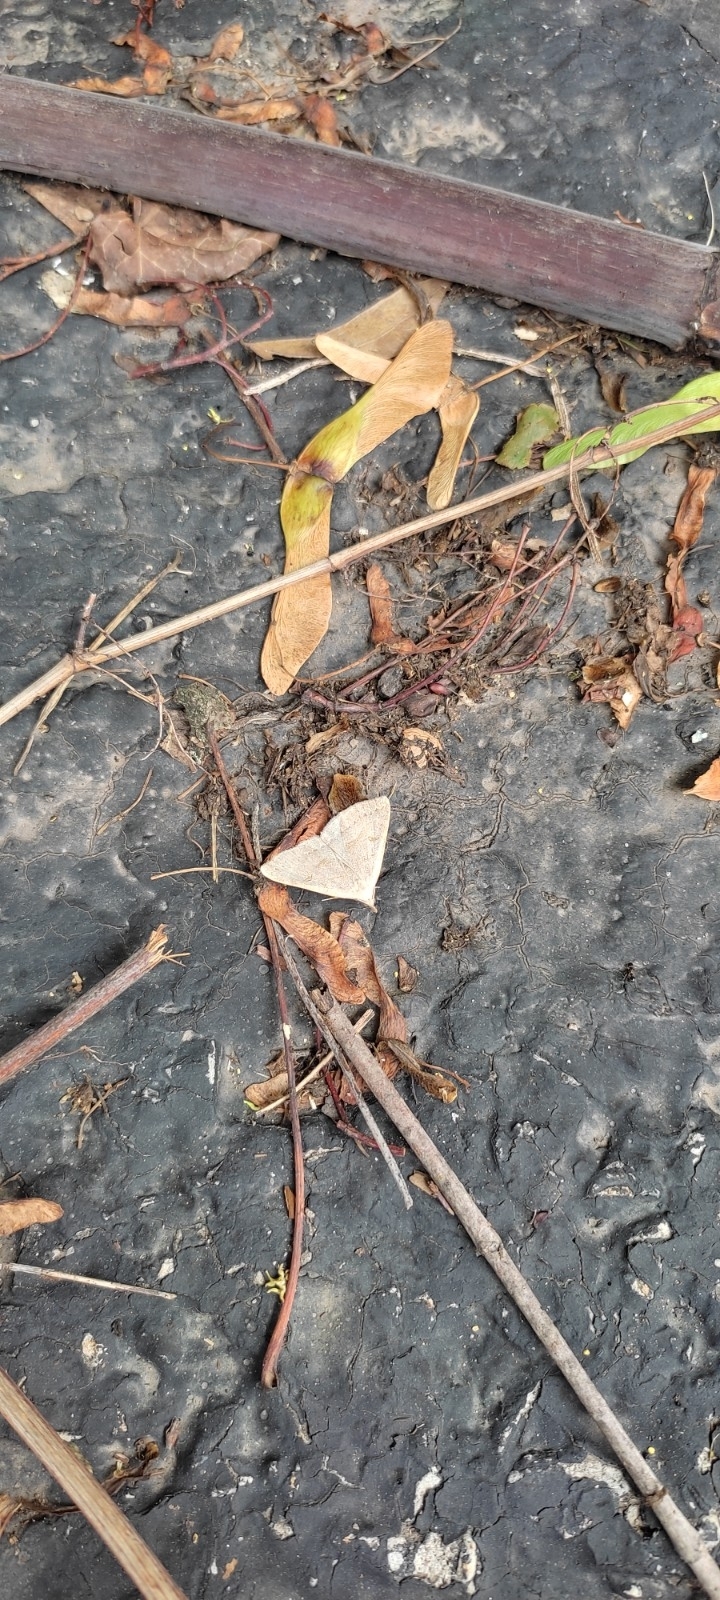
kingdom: Animalia
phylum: Arthropoda
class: Insecta
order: Lepidoptera
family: Erebidae
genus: Macrochilo
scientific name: Macrochilo morbidalis
